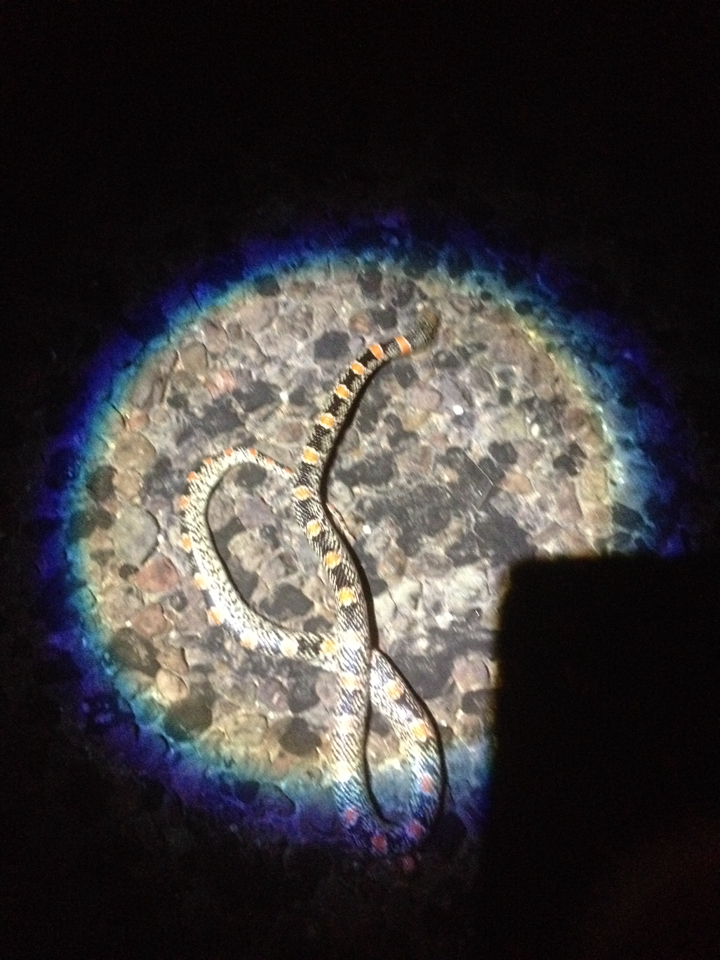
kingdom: Animalia
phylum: Chordata
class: Squamata
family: Colubridae
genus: Rhinocheilus
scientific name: Rhinocheilus lecontei
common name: Longnose snake
